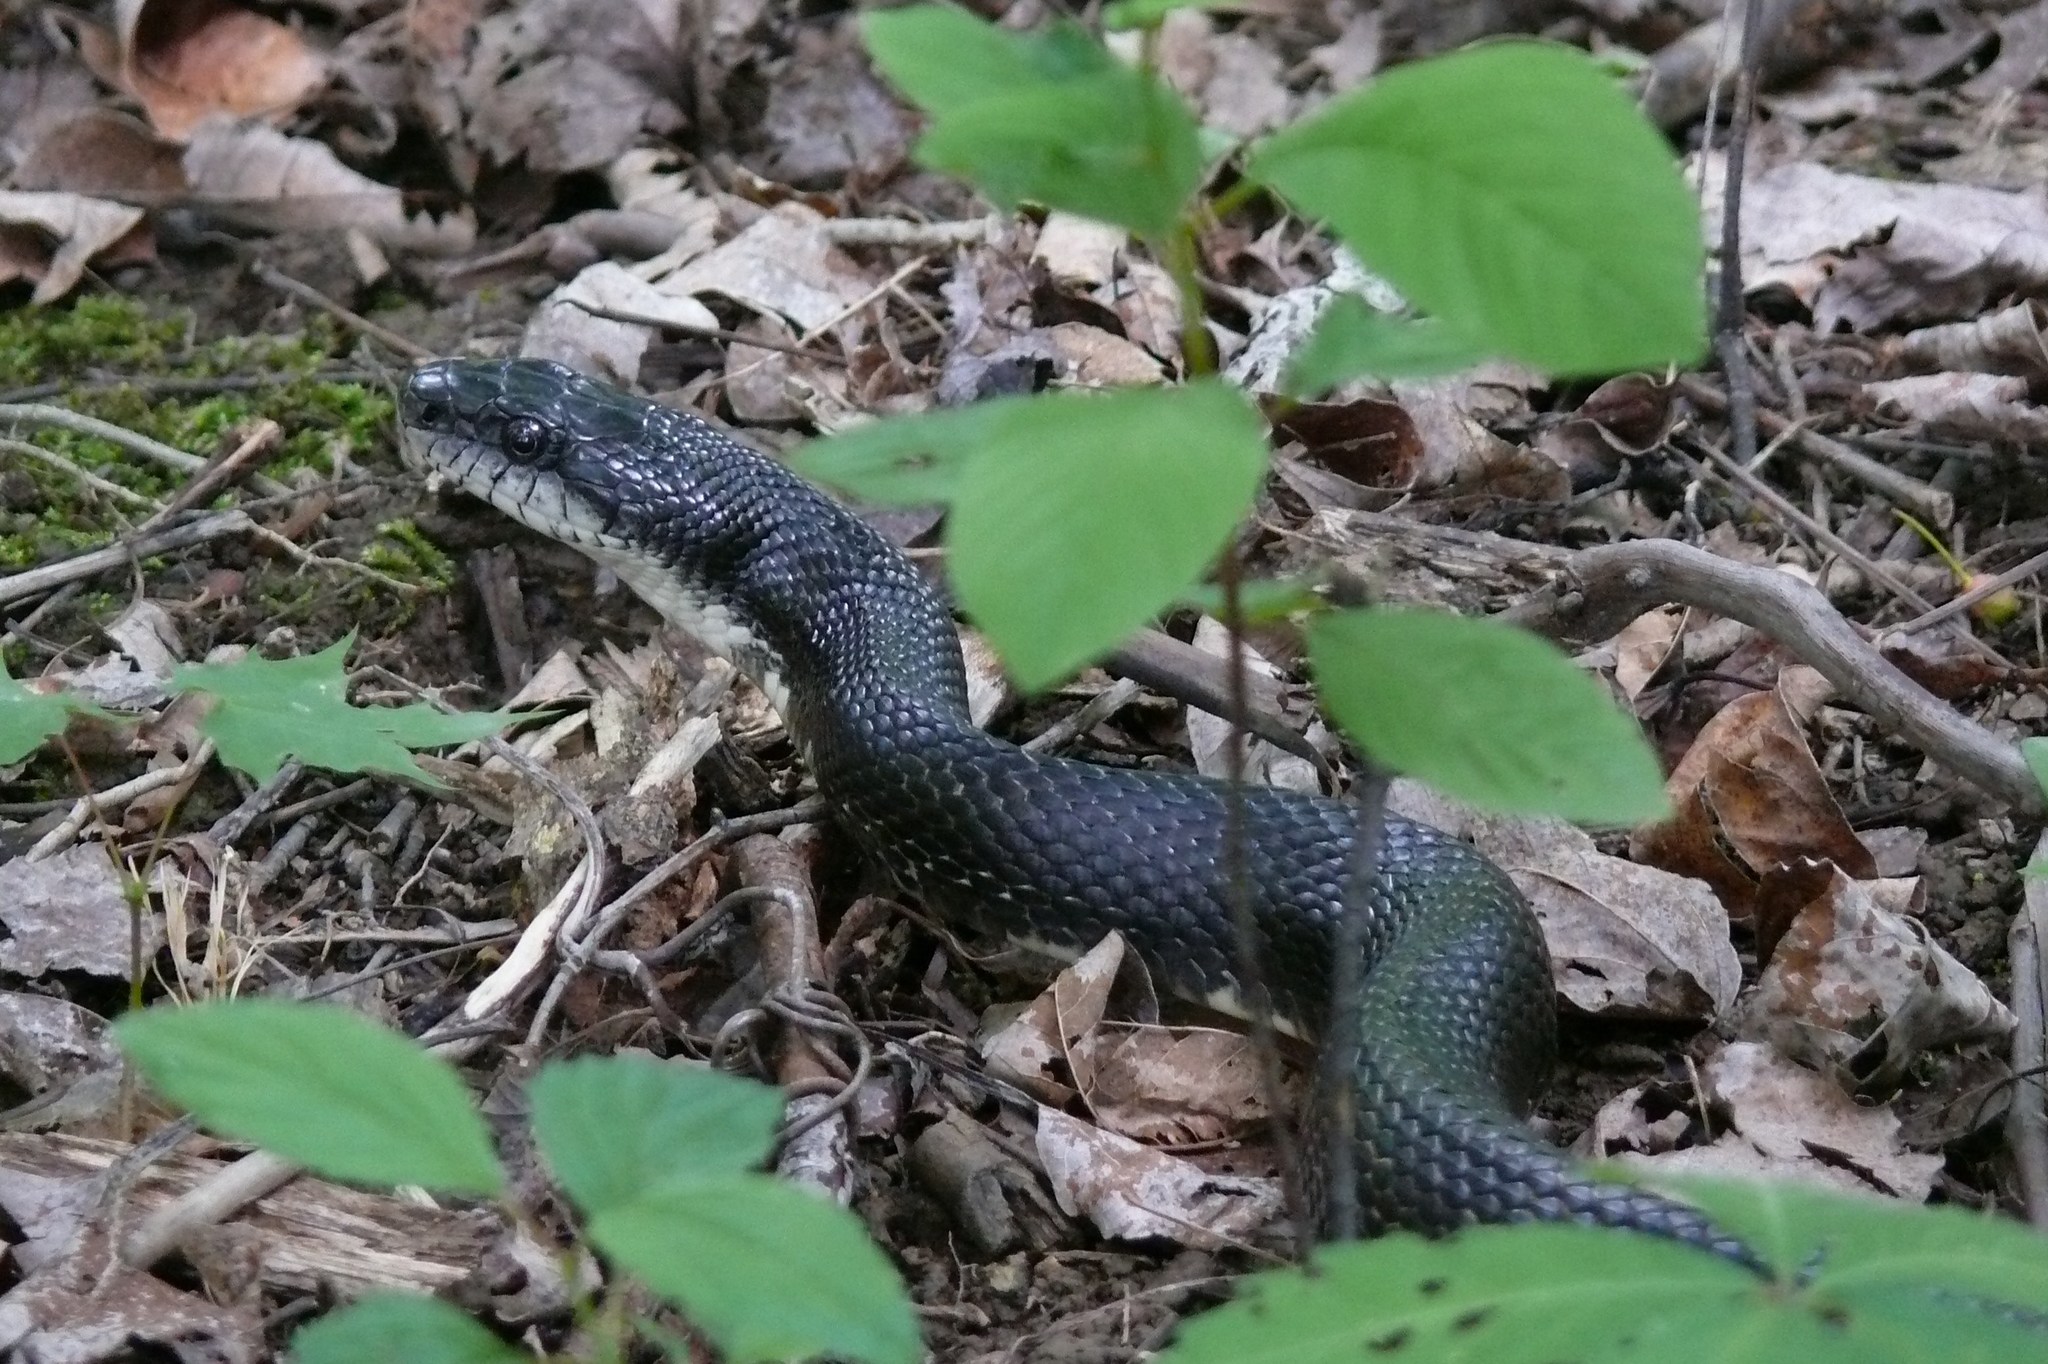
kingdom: Animalia
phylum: Chordata
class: Squamata
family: Colubridae
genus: Pantherophis
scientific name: Pantherophis spiloides
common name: Gray rat snake
